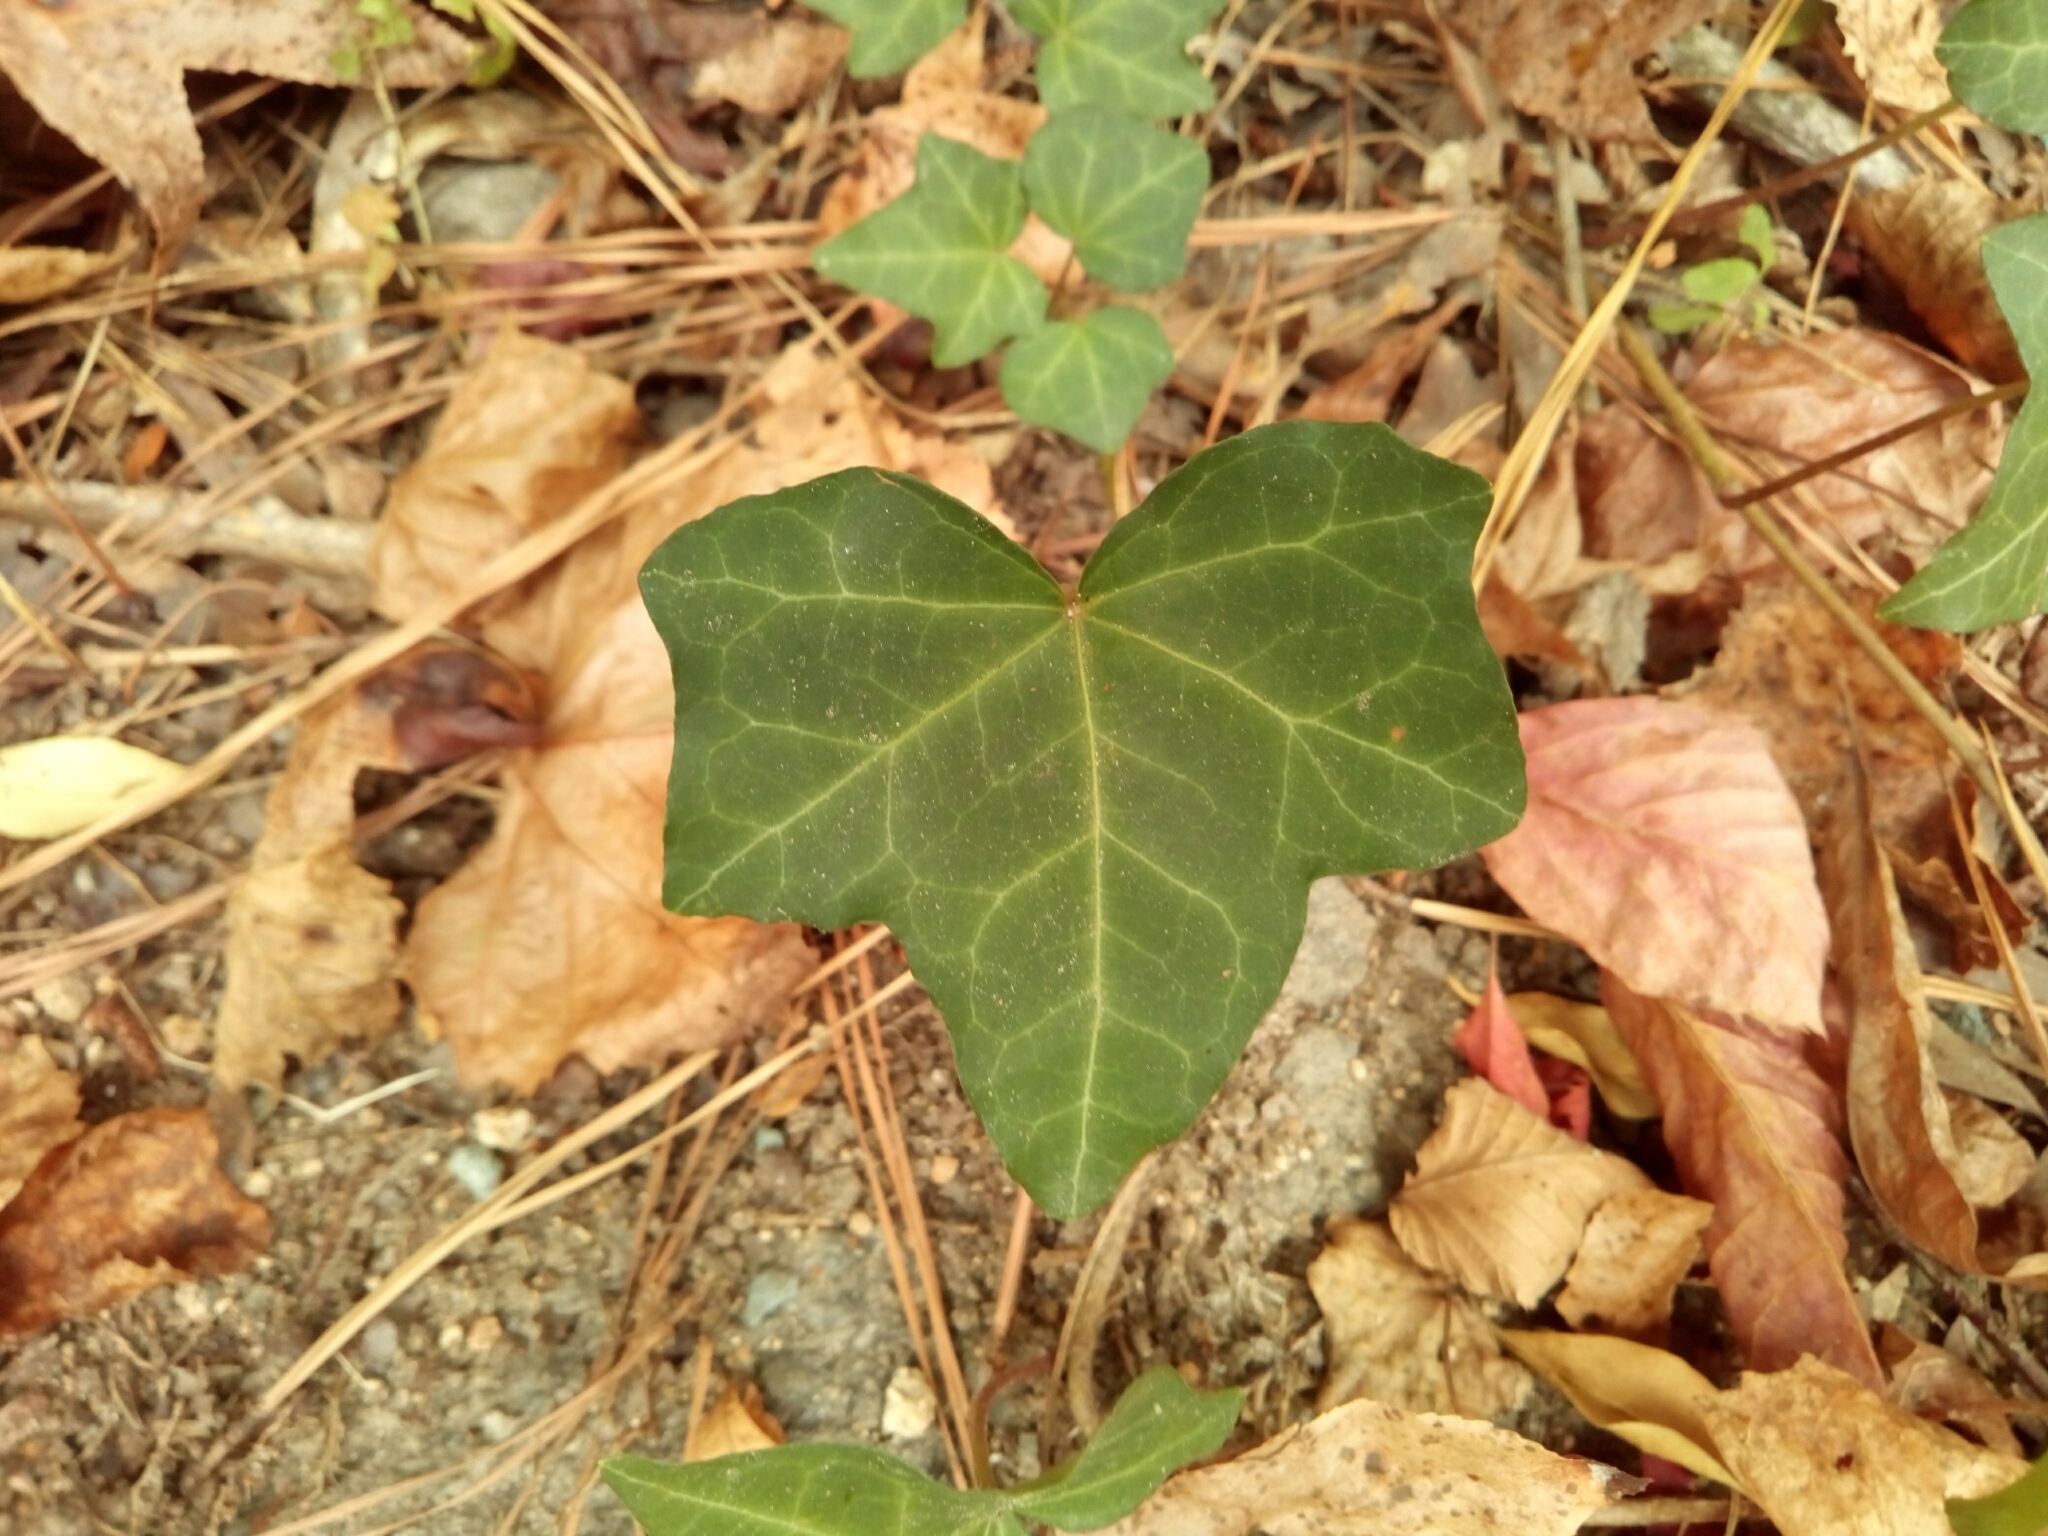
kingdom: Plantae
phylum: Tracheophyta
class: Magnoliopsida
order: Apiales
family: Araliaceae
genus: Hedera
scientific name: Hedera helix
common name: Ivy
